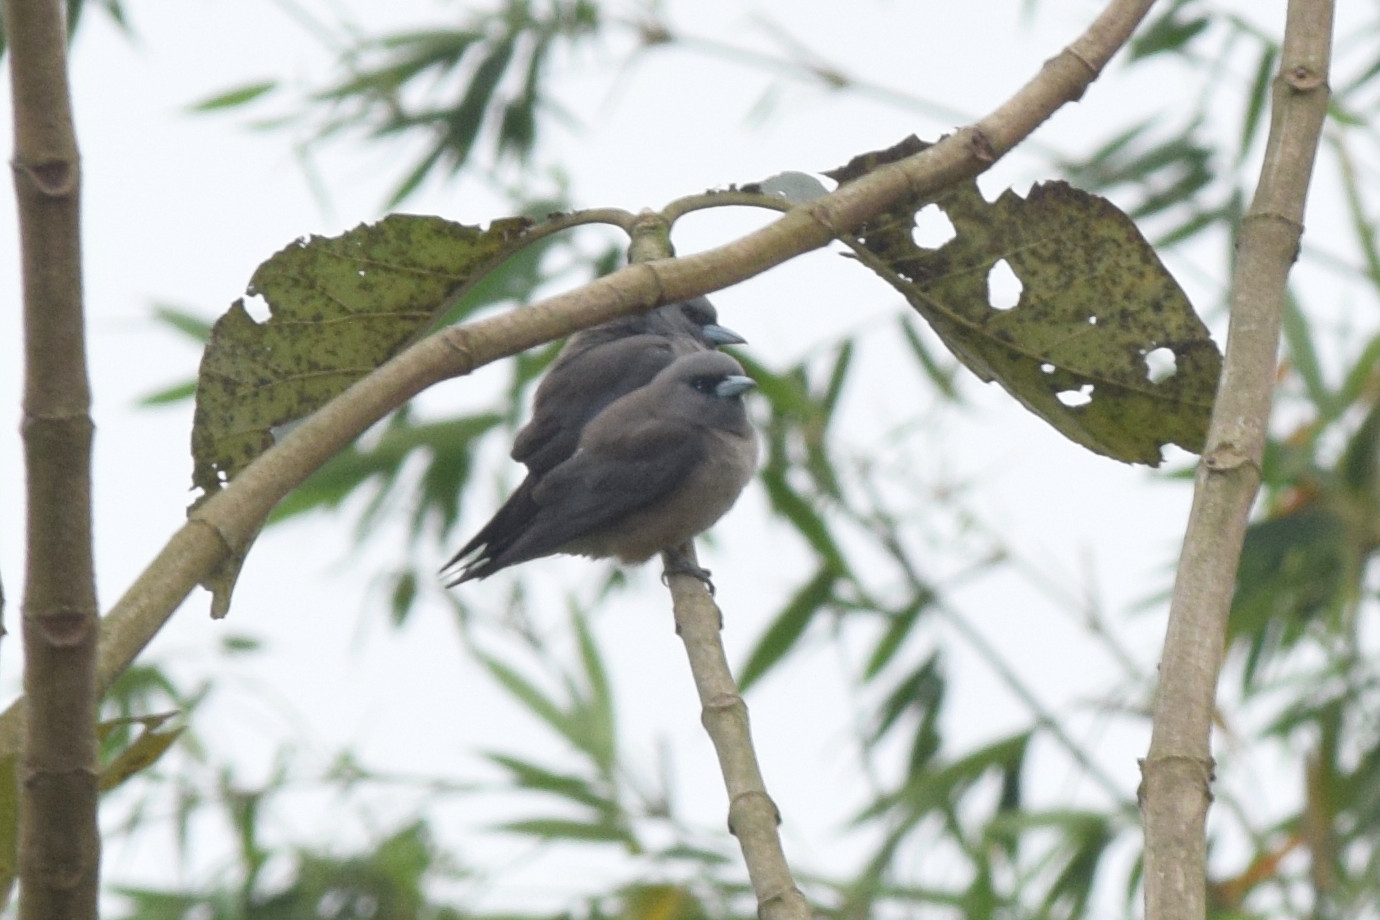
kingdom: Animalia
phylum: Chordata
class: Aves
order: Passeriformes
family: Artamidae
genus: Artamus
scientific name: Artamus fuscus
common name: Ashy woodswallow
